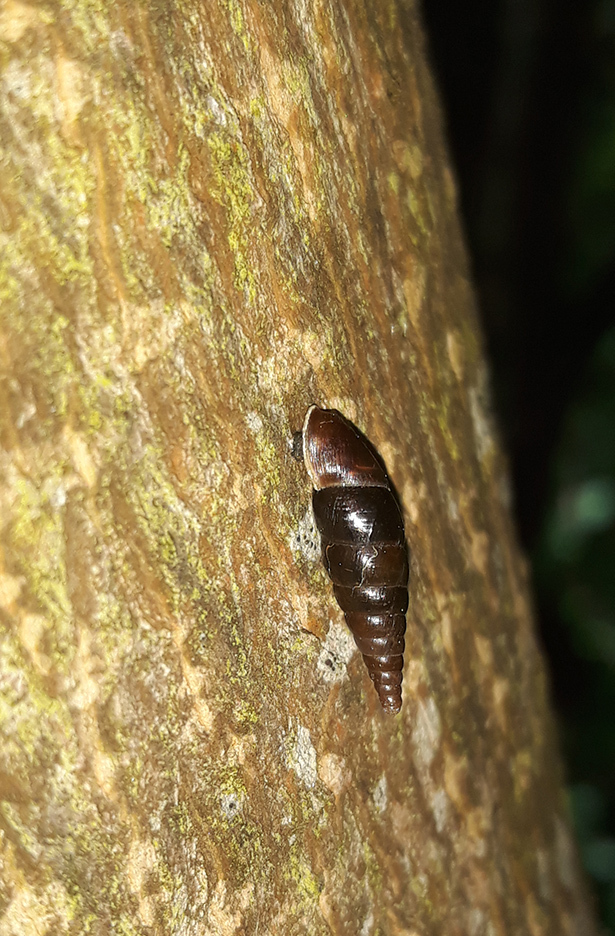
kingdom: Animalia
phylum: Mollusca
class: Gastropoda
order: Stylommatophora
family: Clausiliidae
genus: Cochlodina
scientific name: Cochlodina laminata
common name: Plaited door snail
